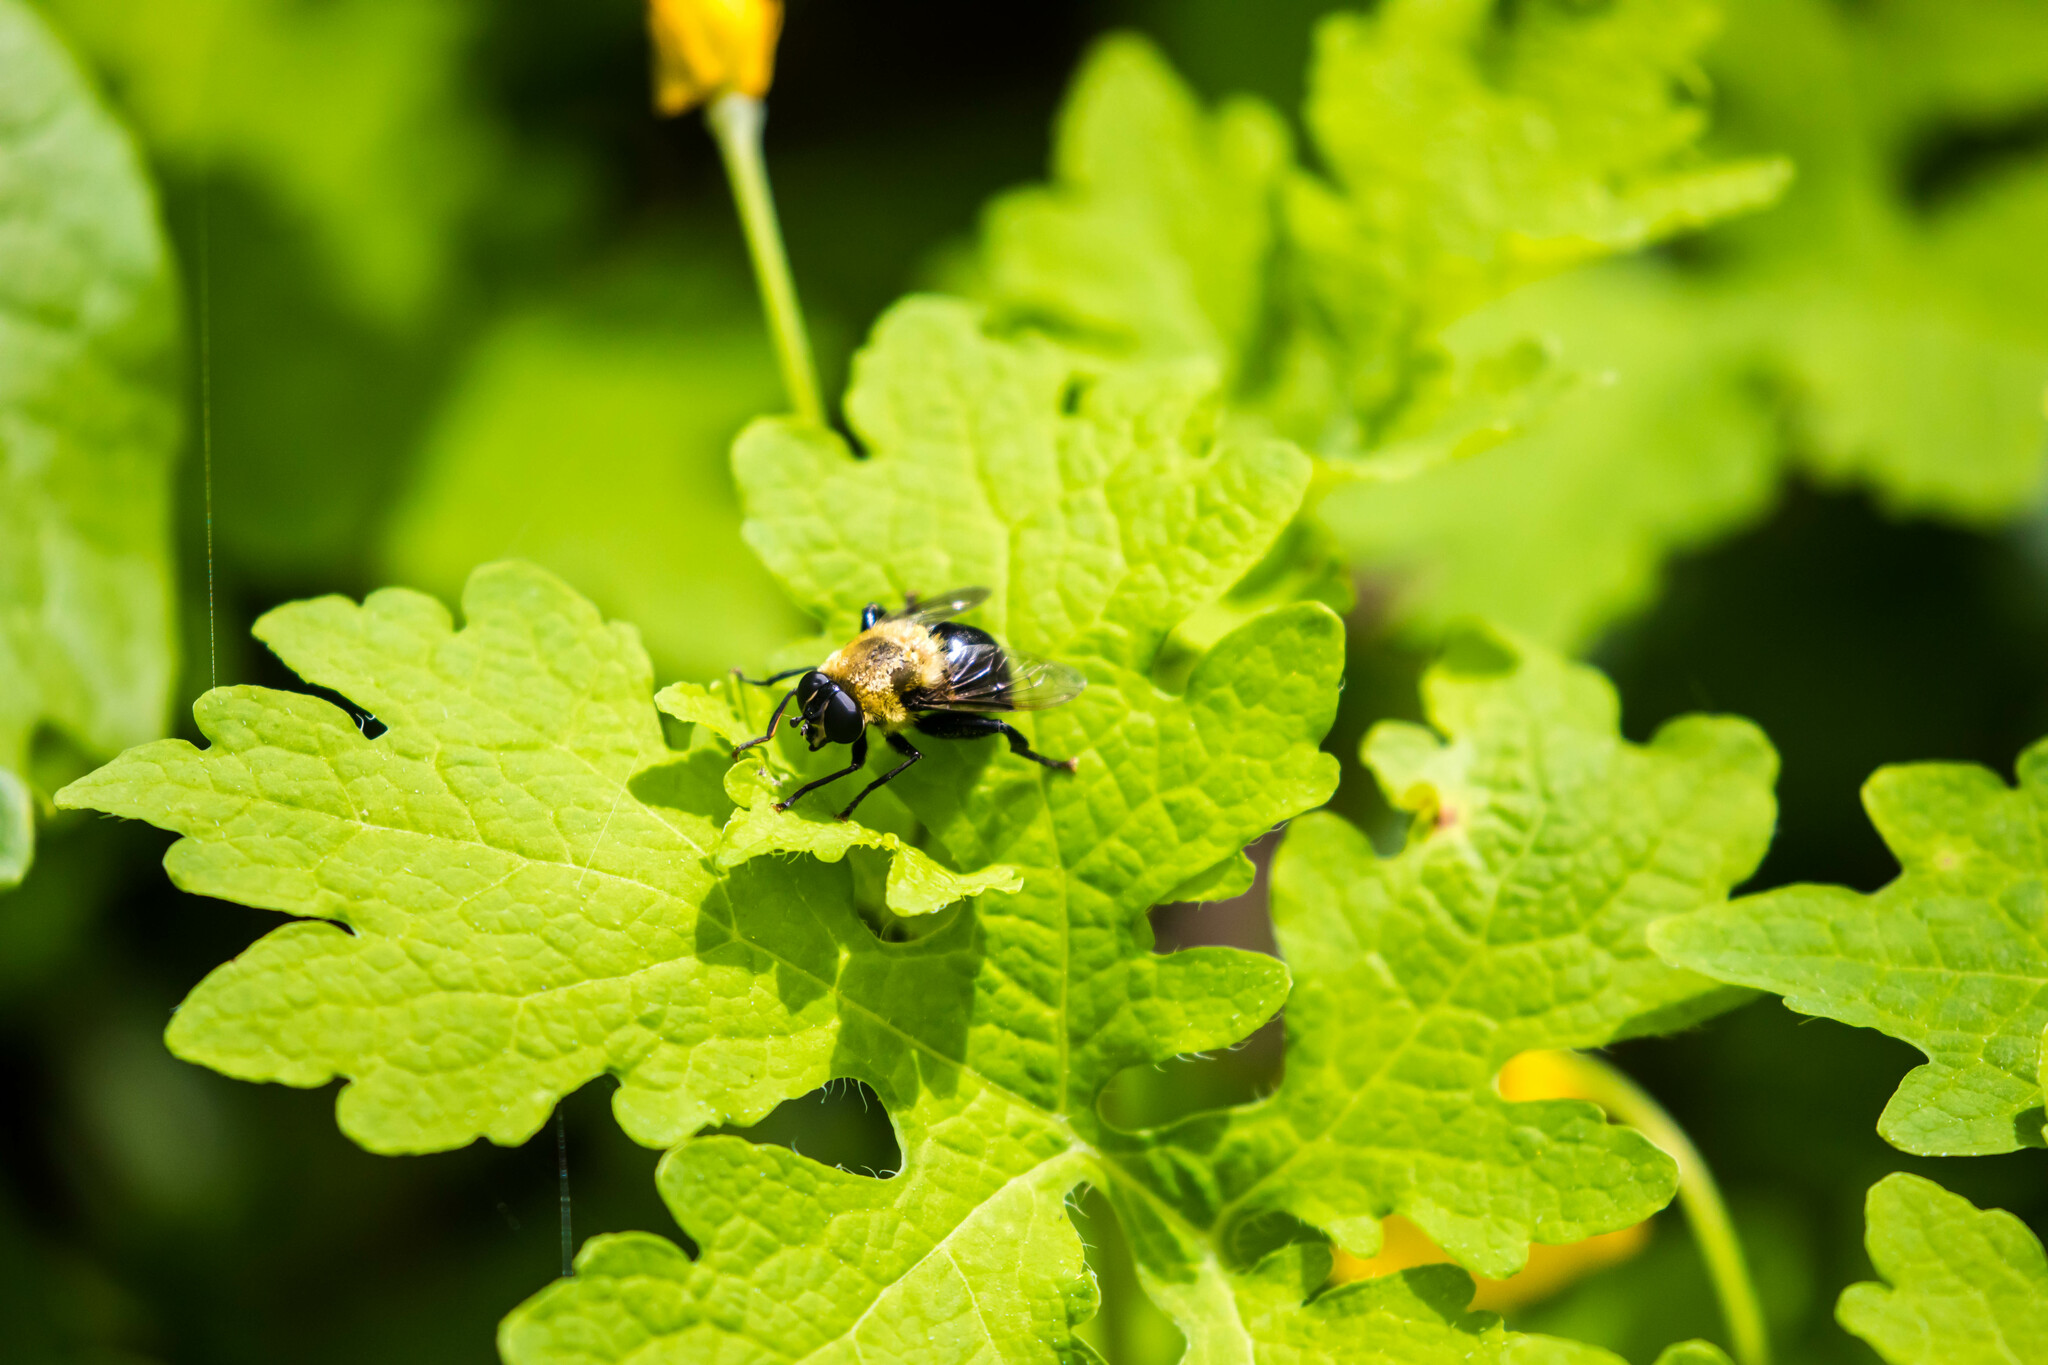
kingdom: Animalia
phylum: Arthropoda
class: Insecta
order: Diptera
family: Syrphidae
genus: Imatisma
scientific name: Imatisma bautias
